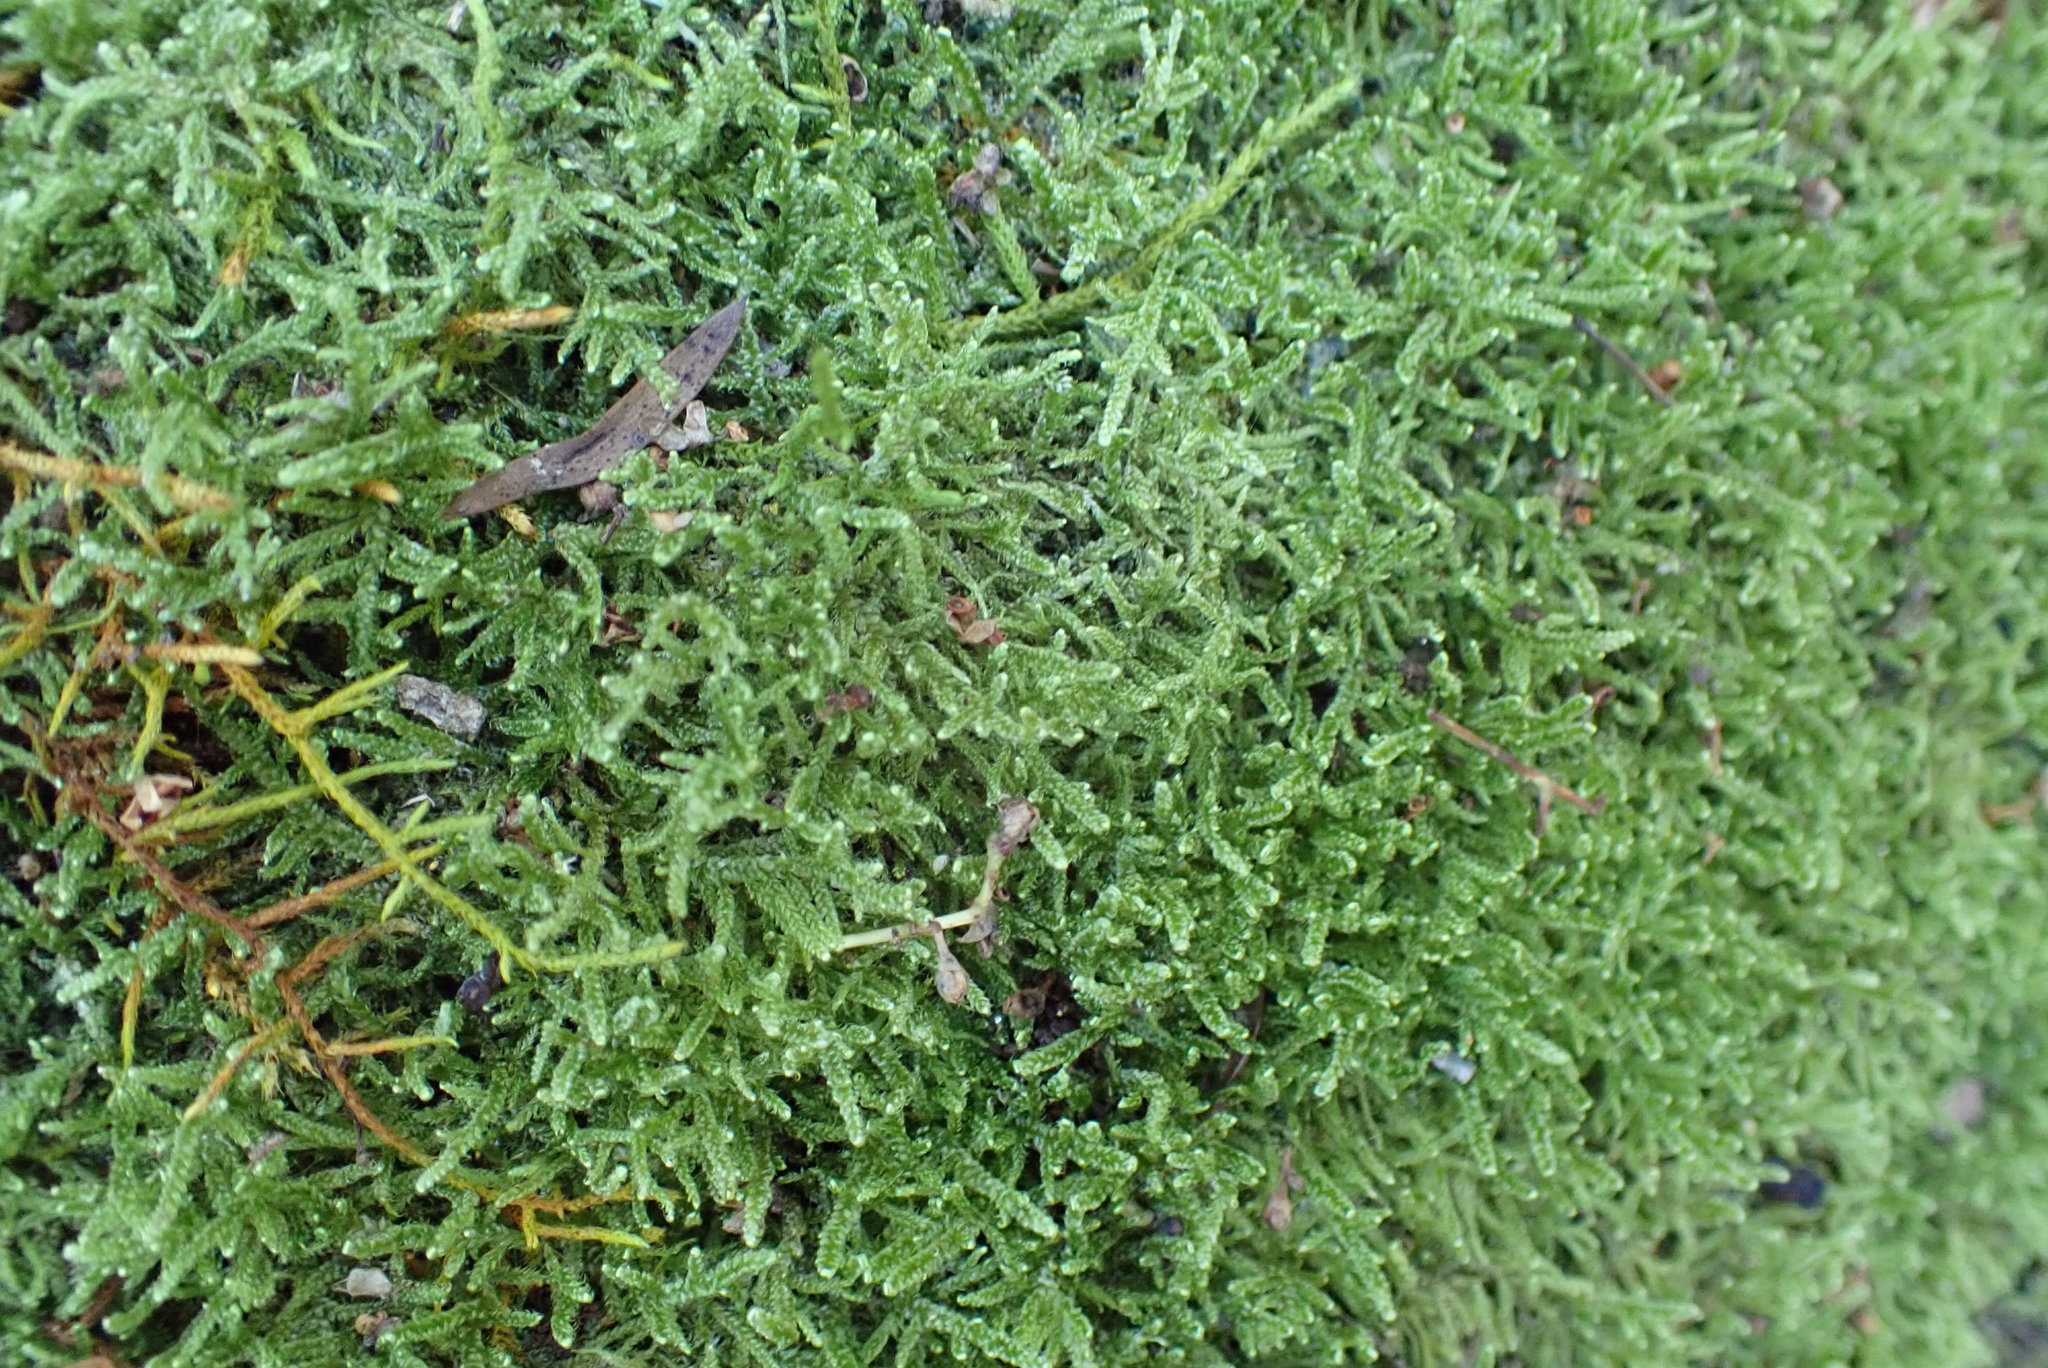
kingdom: Plantae
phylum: Bryophyta
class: Bryopsida
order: Hypnales
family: Hypnaceae
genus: Hypnum
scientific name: Hypnum cupressiforme
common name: Cypress-leaved plait-moss
